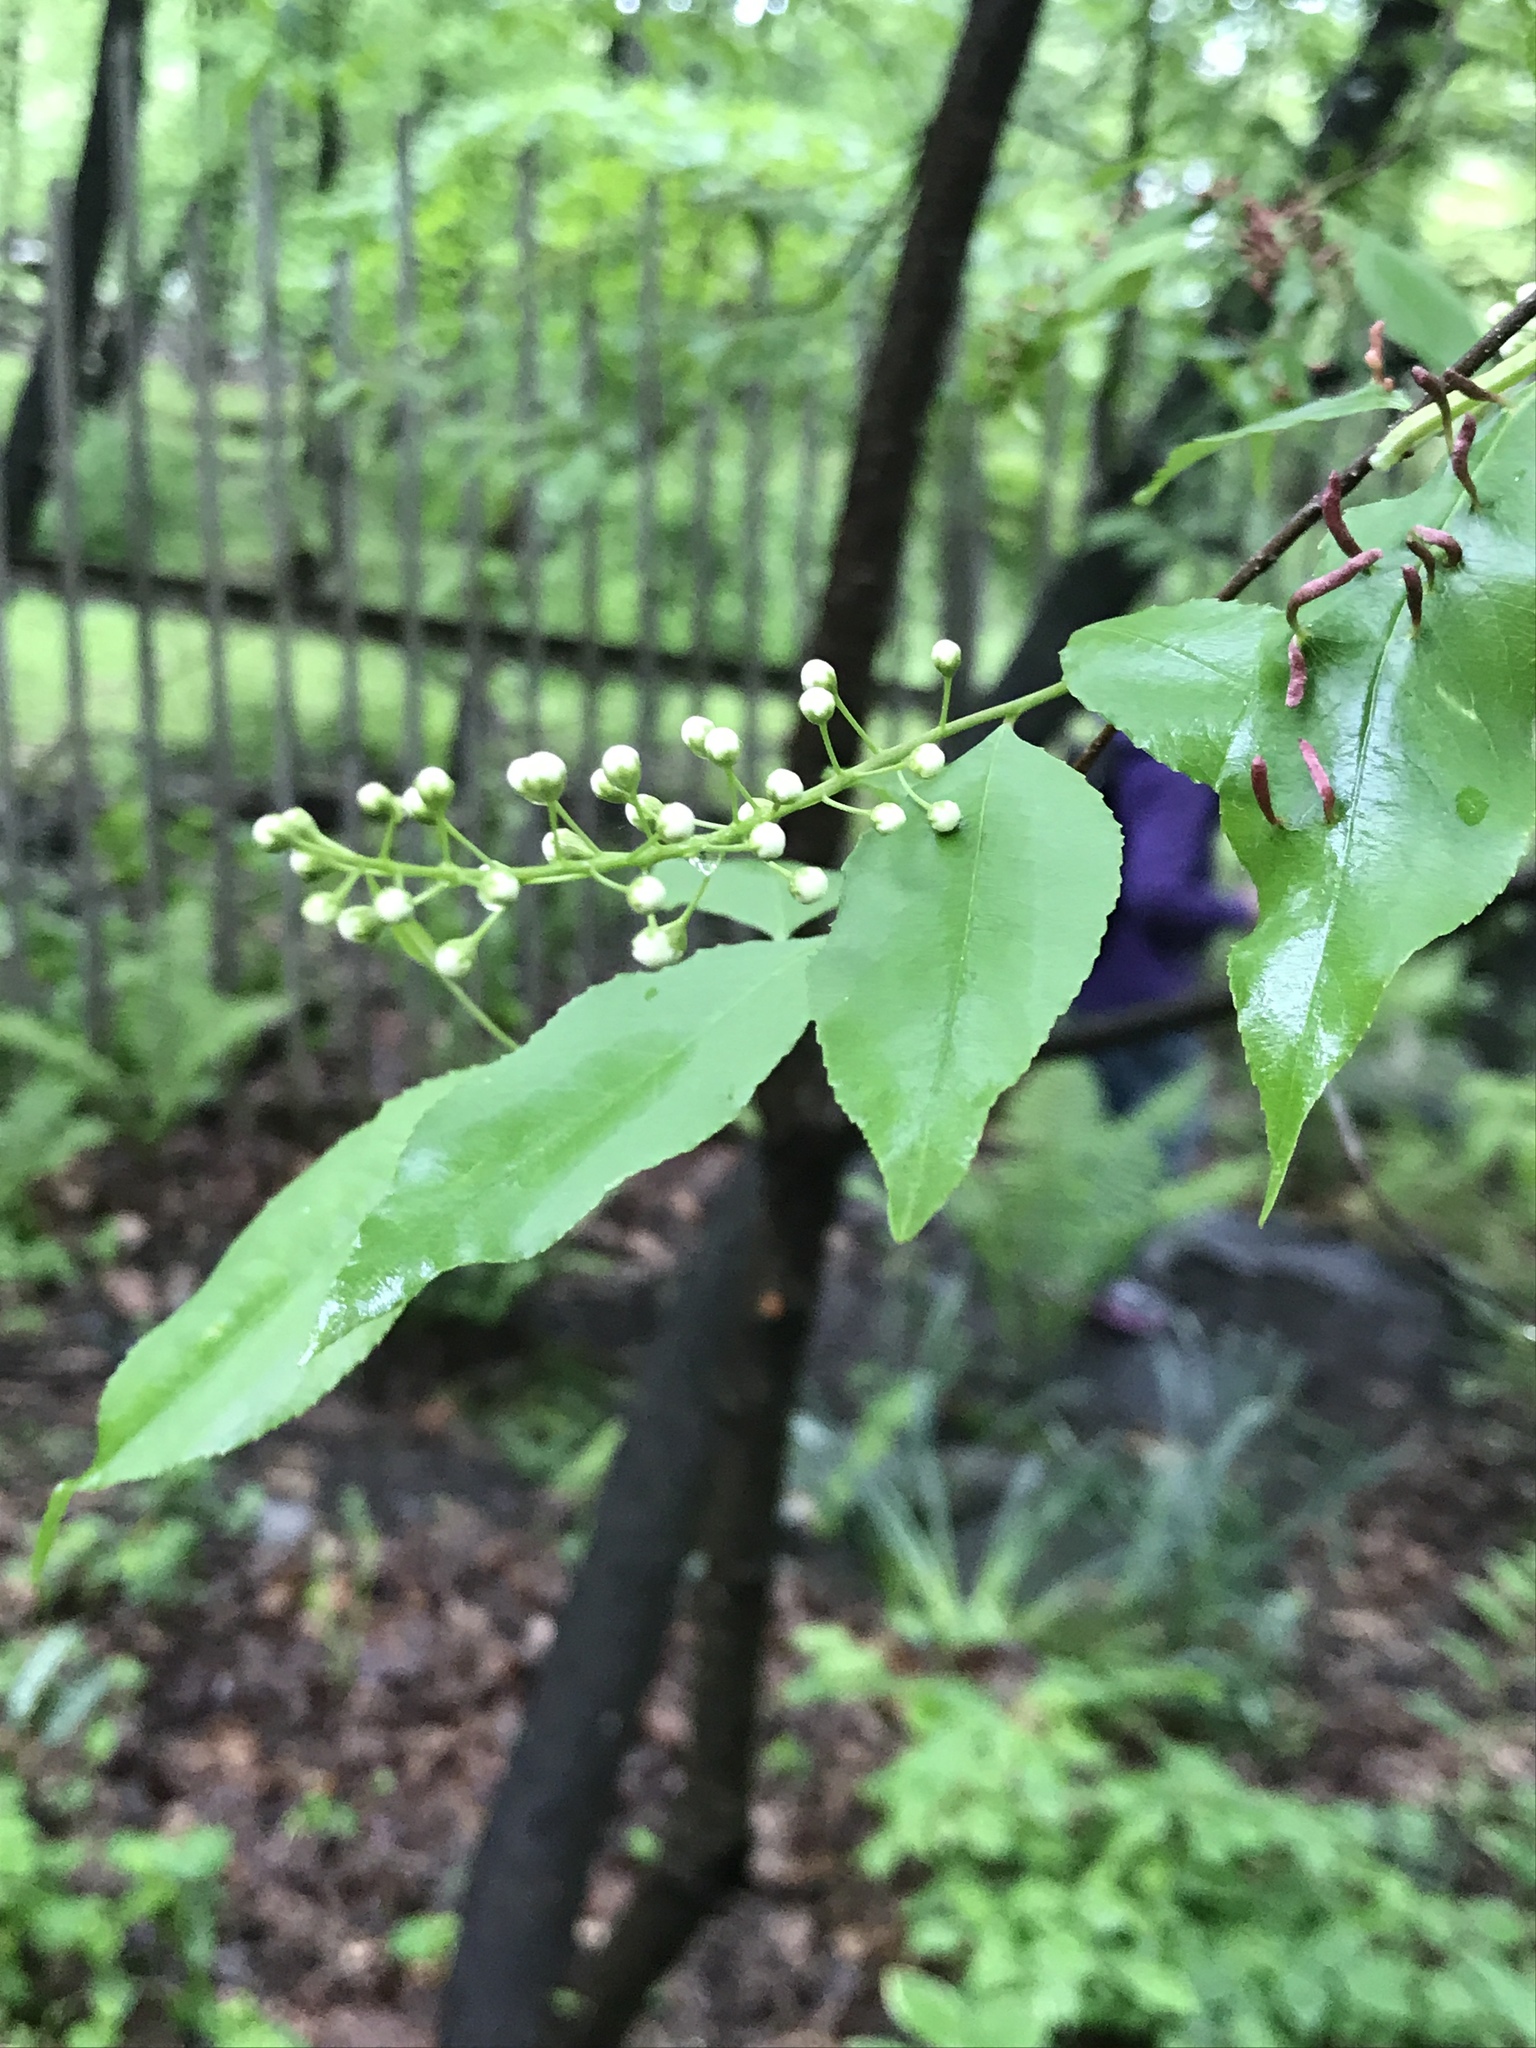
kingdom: Plantae
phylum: Tracheophyta
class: Magnoliopsida
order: Rosales
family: Rosaceae
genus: Prunus
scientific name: Prunus serotina
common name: Black cherry
